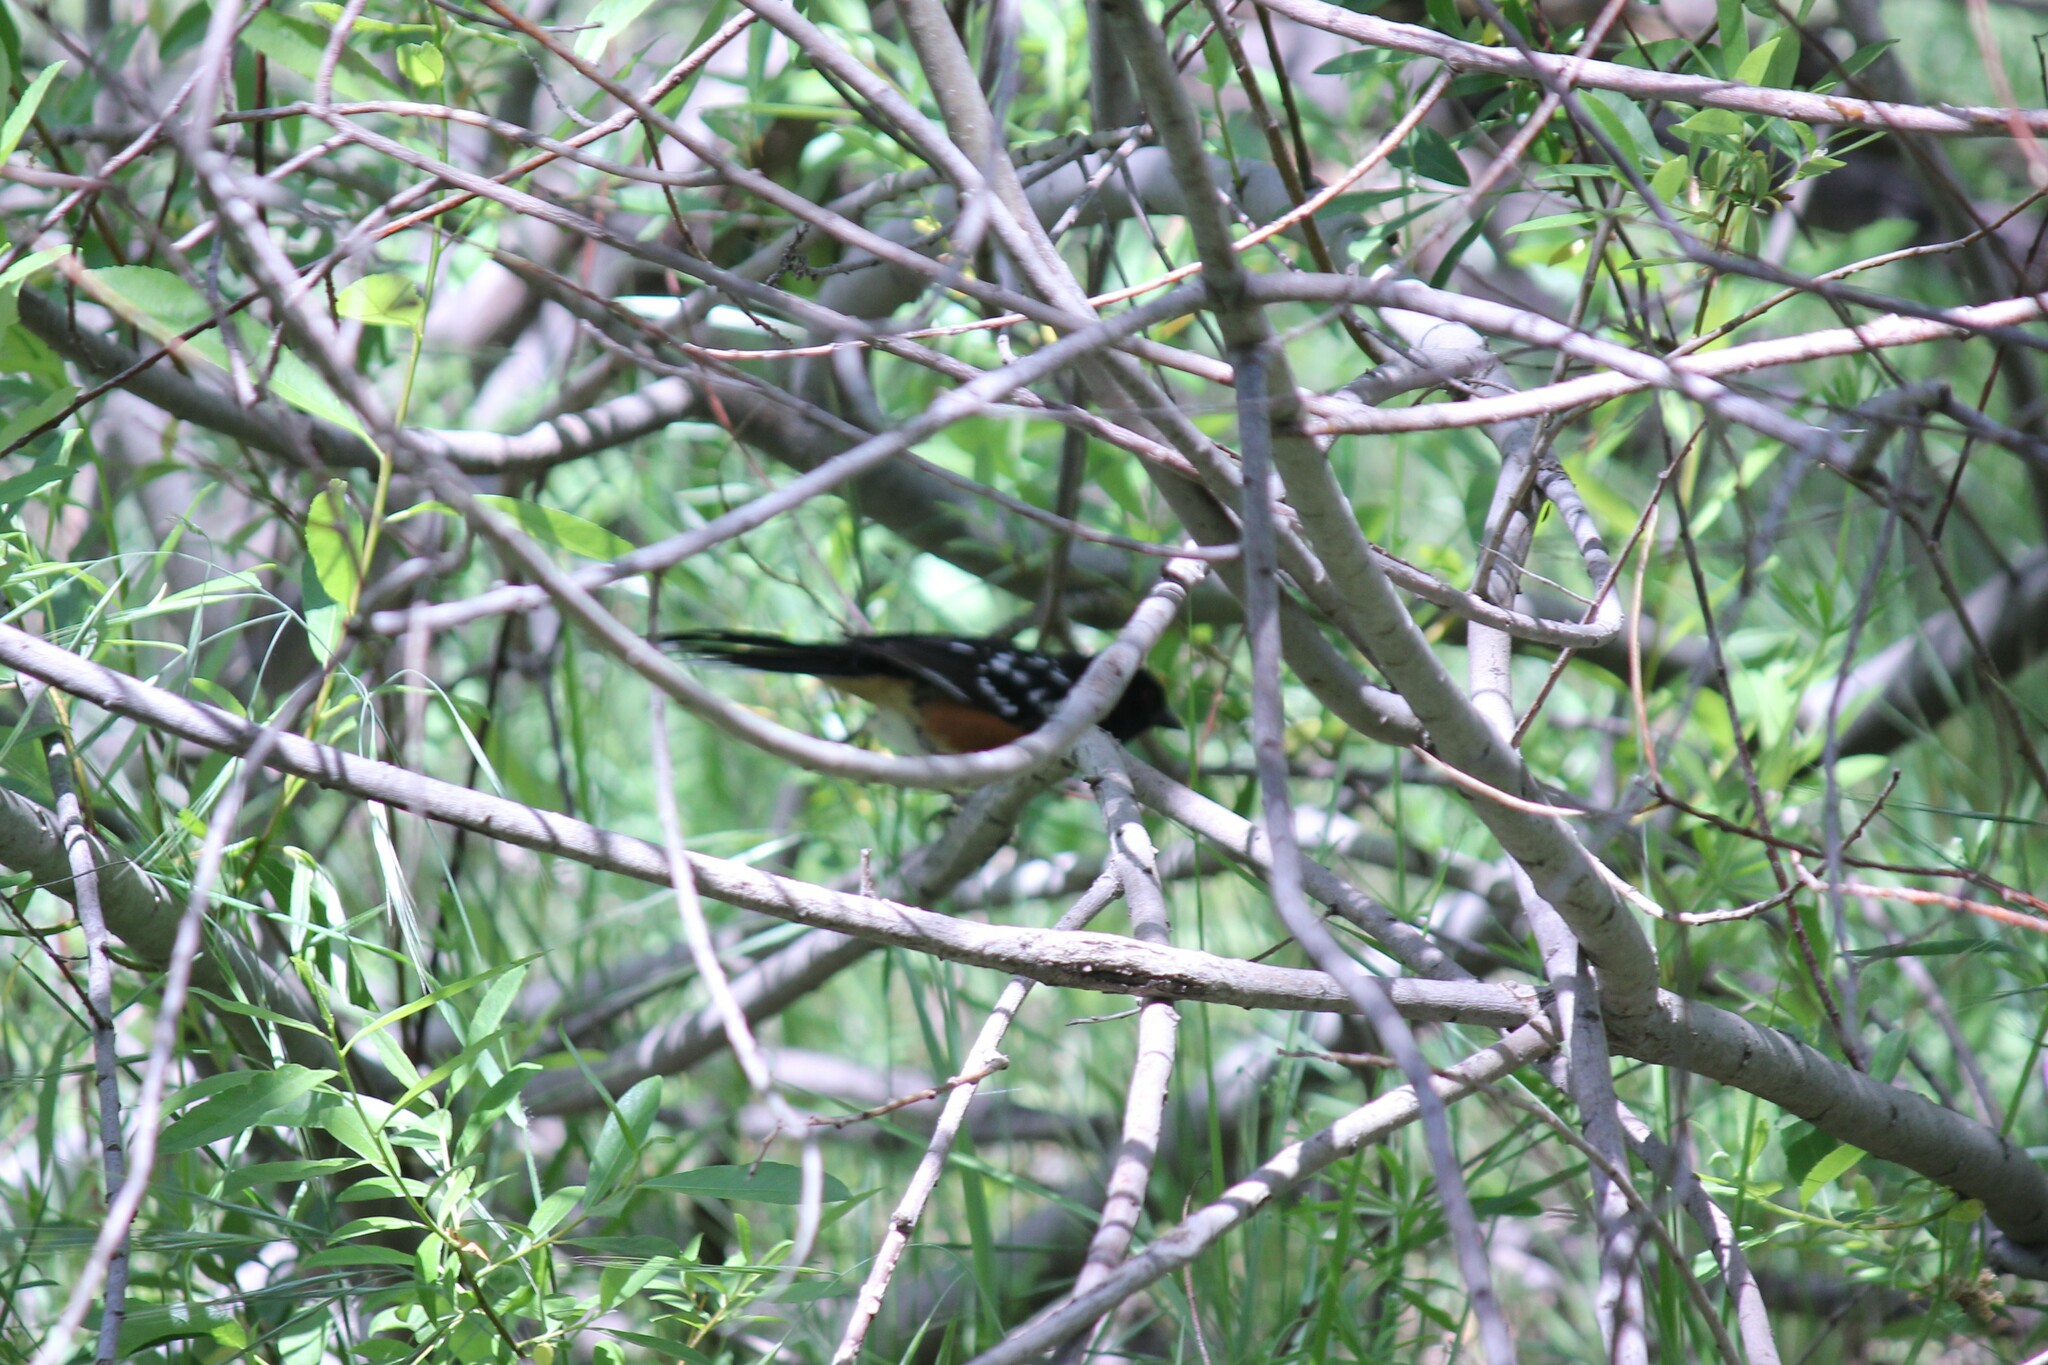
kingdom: Animalia
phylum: Chordata
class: Aves
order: Passeriformes
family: Passerellidae
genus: Pipilo
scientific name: Pipilo maculatus
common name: Spotted towhee
